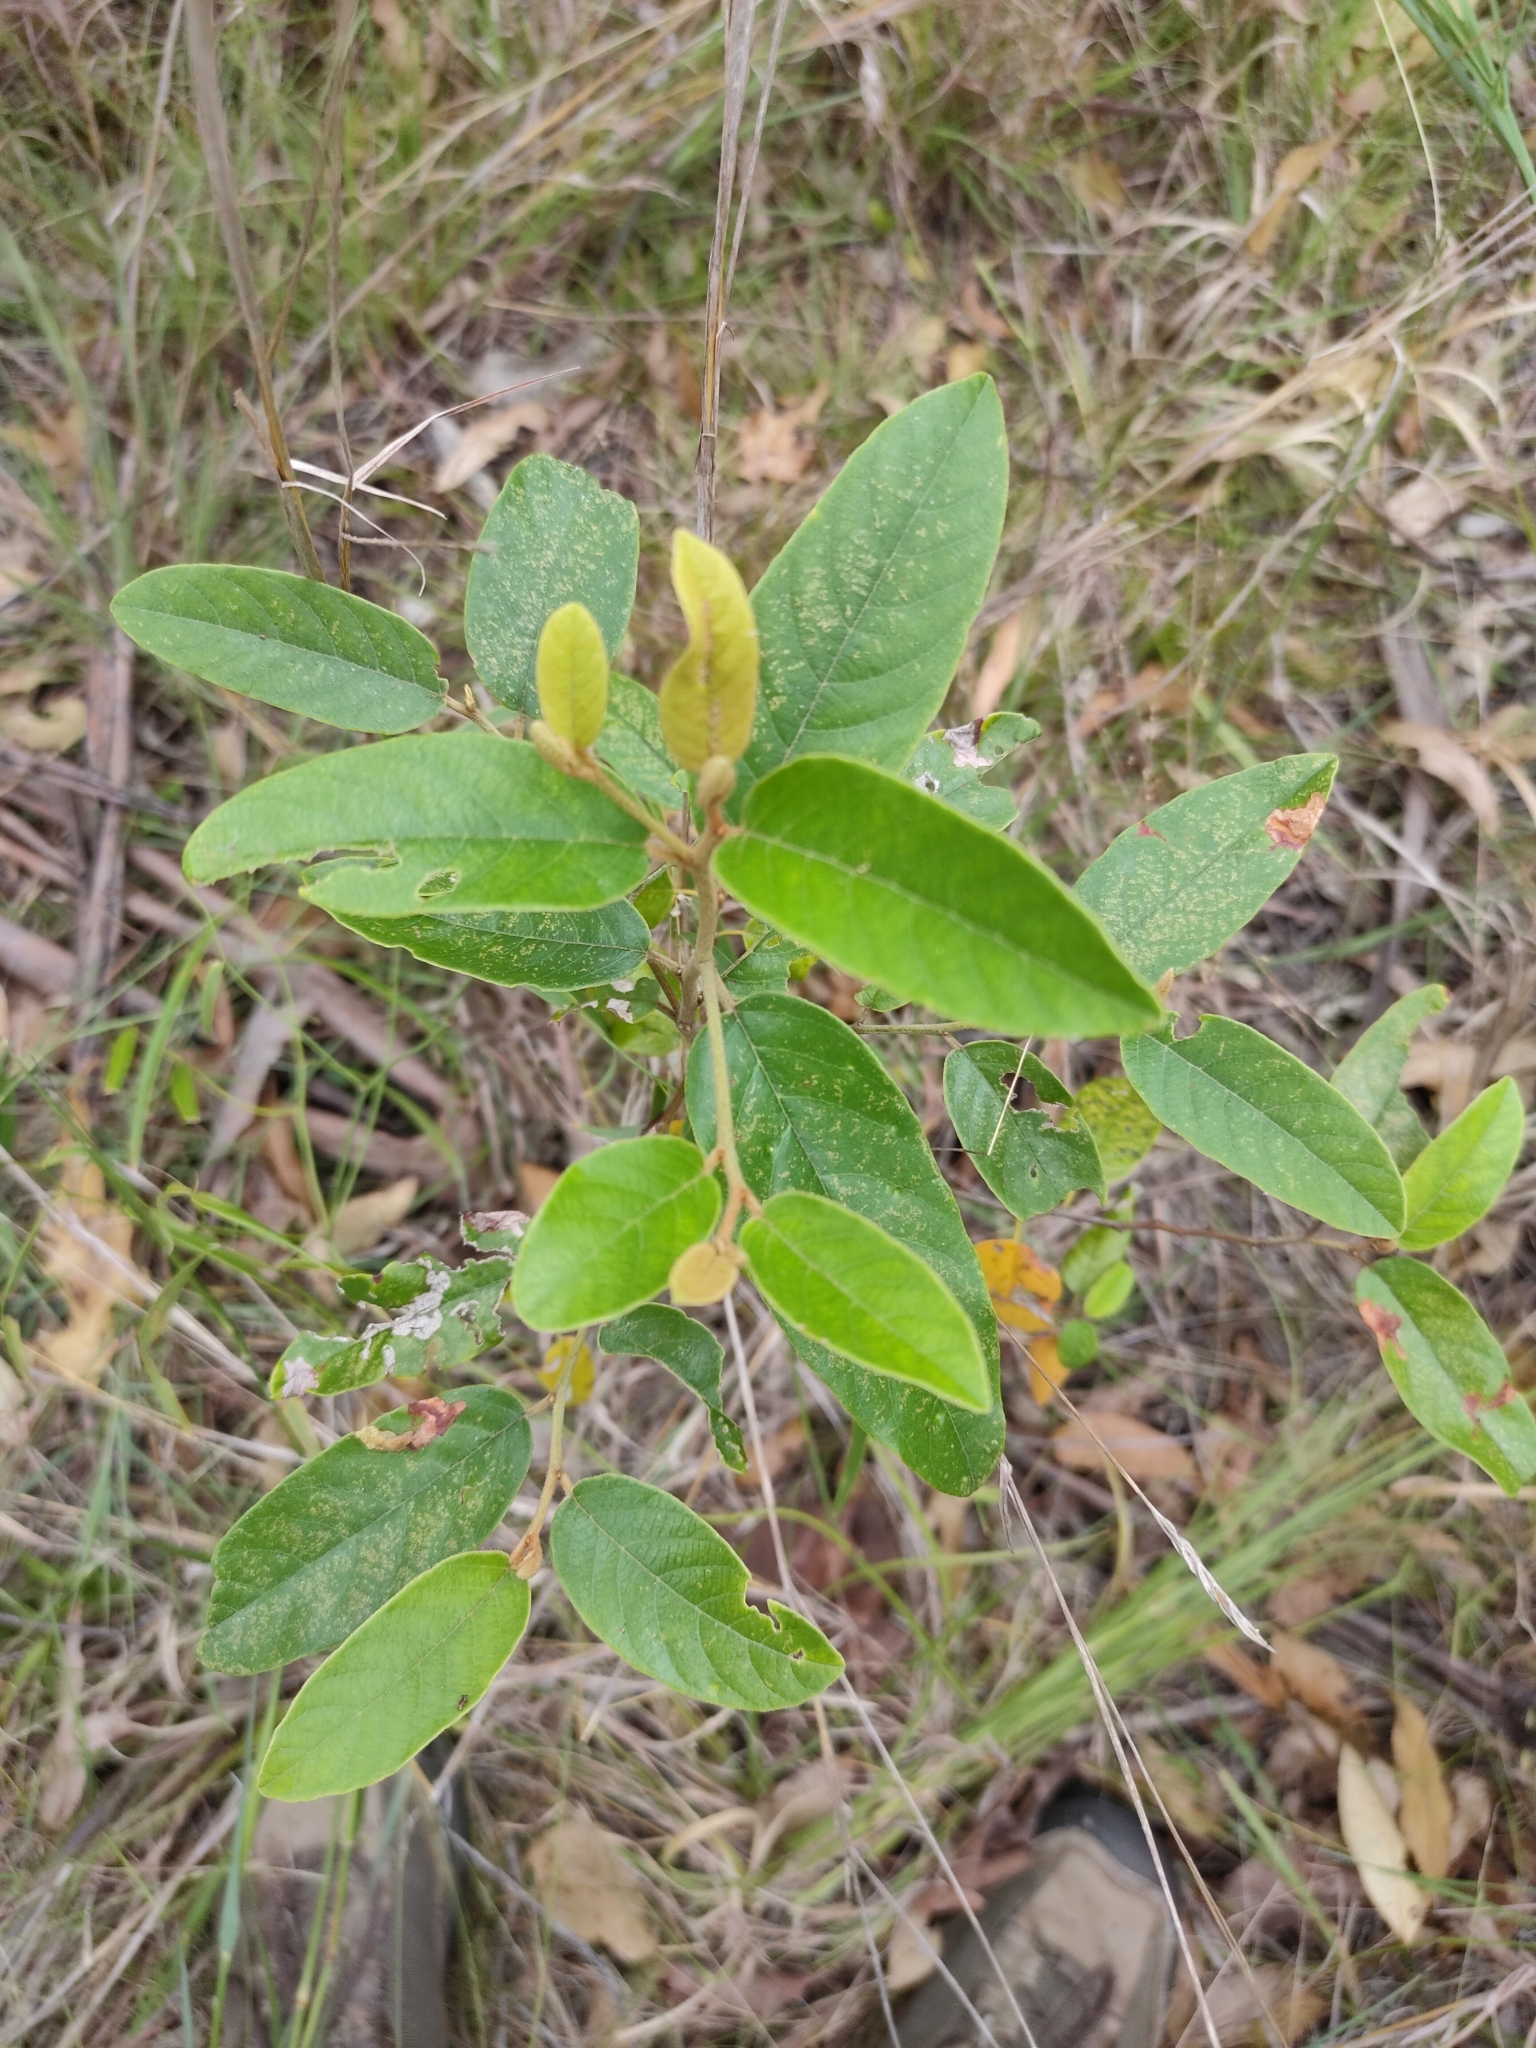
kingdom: Plantae
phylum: Tracheophyta
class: Magnoliopsida
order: Rosales
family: Rhamnaceae
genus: Alphitonia
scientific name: Alphitonia excelsa
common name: Red ash
